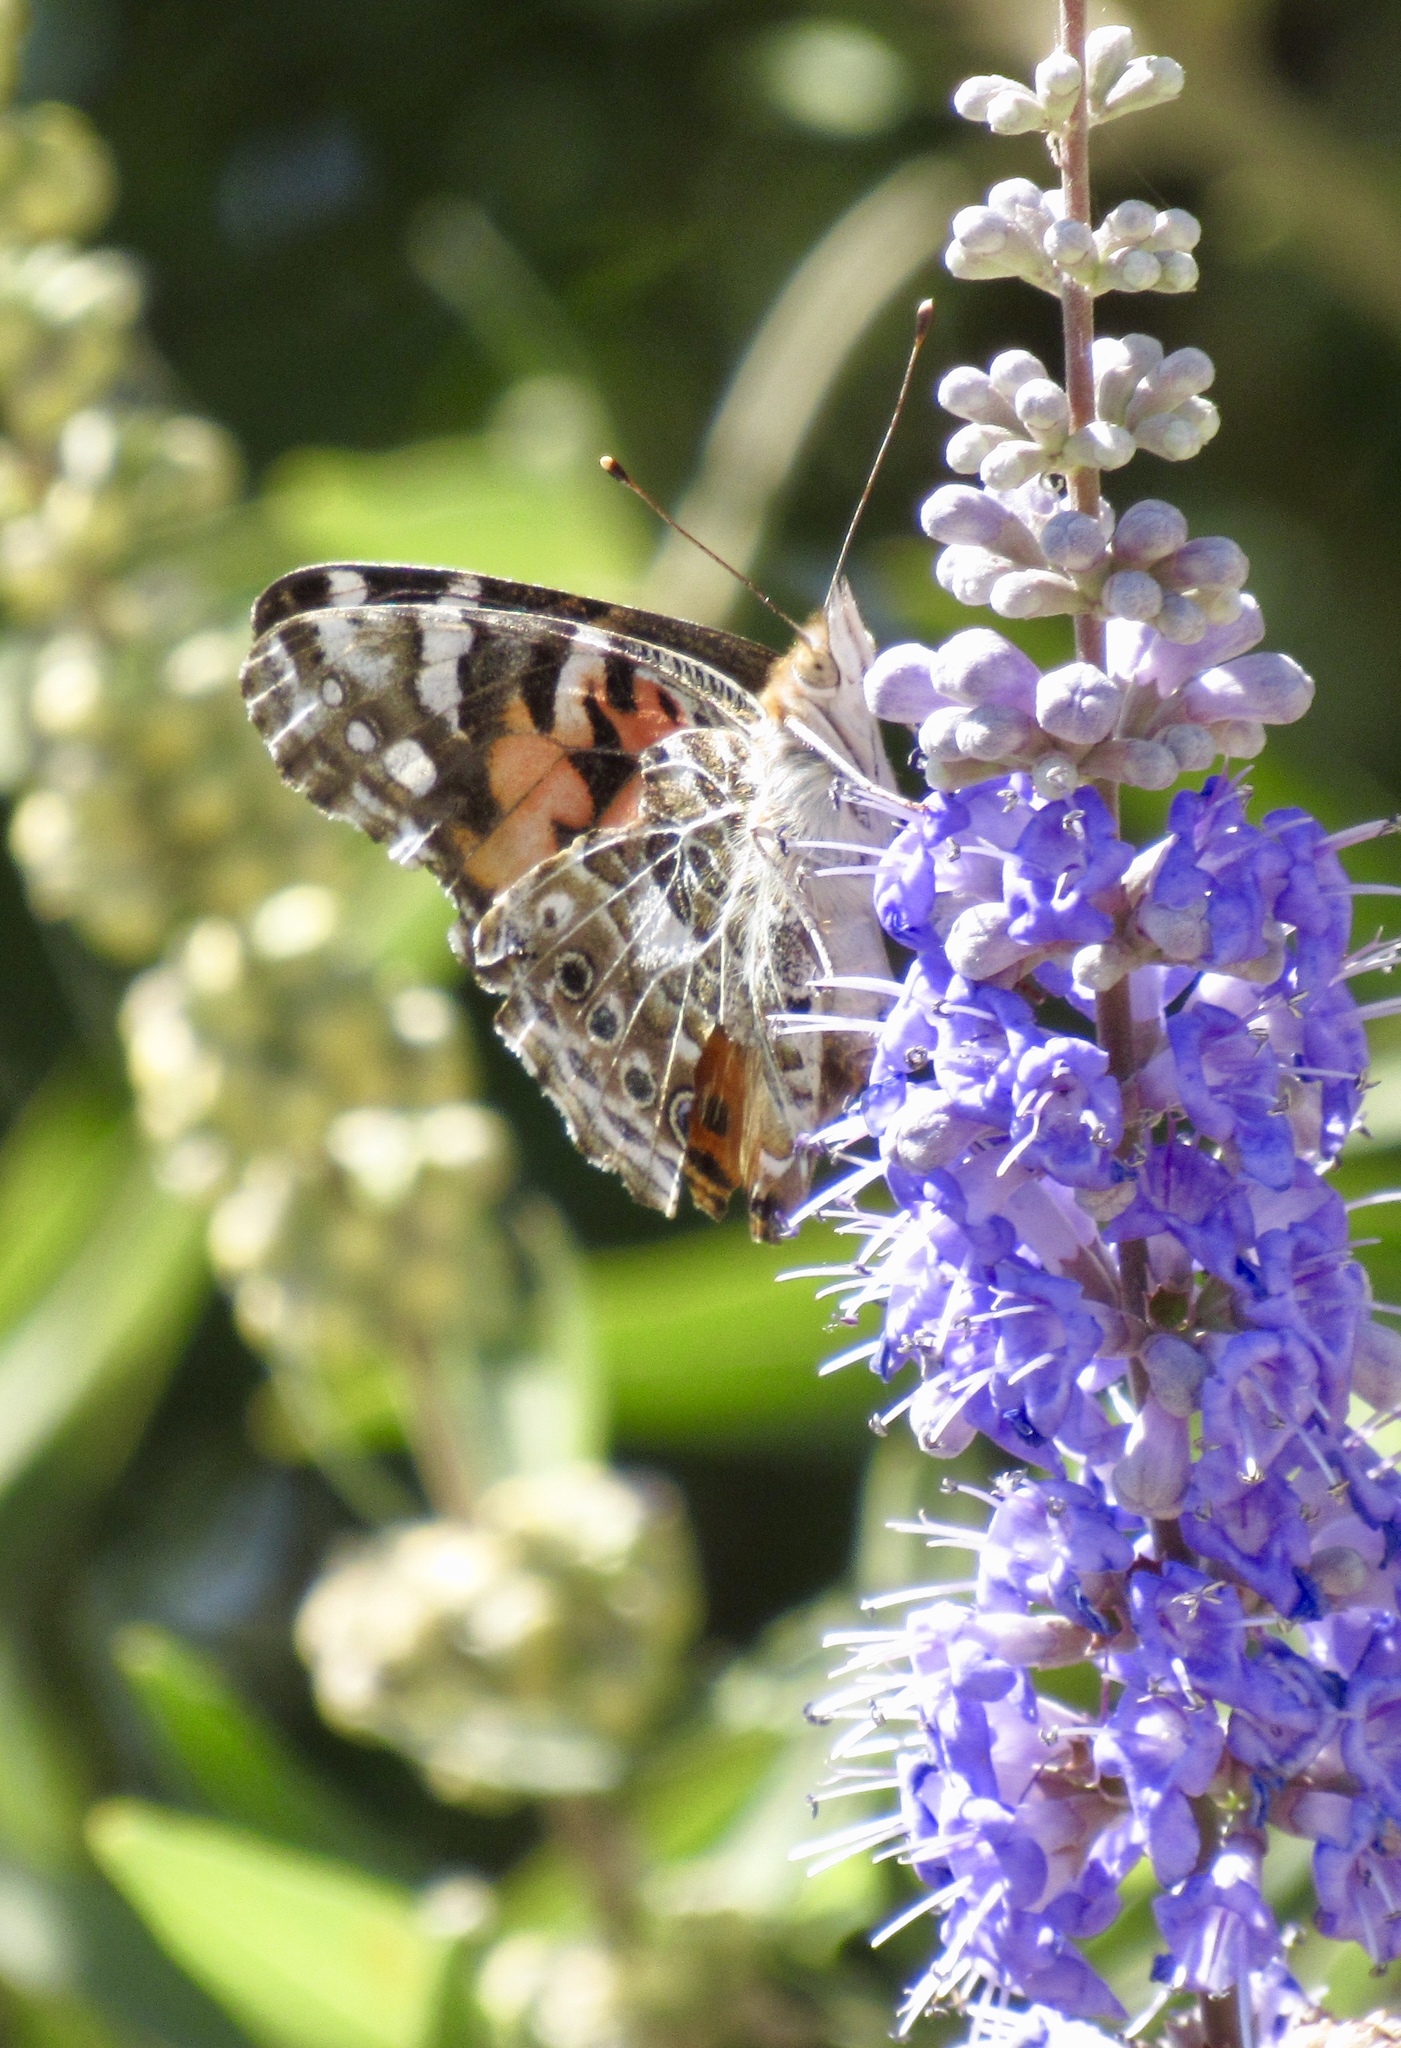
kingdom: Animalia
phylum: Arthropoda
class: Insecta
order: Lepidoptera
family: Nymphalidae
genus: Vanessa
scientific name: Vanessa cardui
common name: Painted lady
